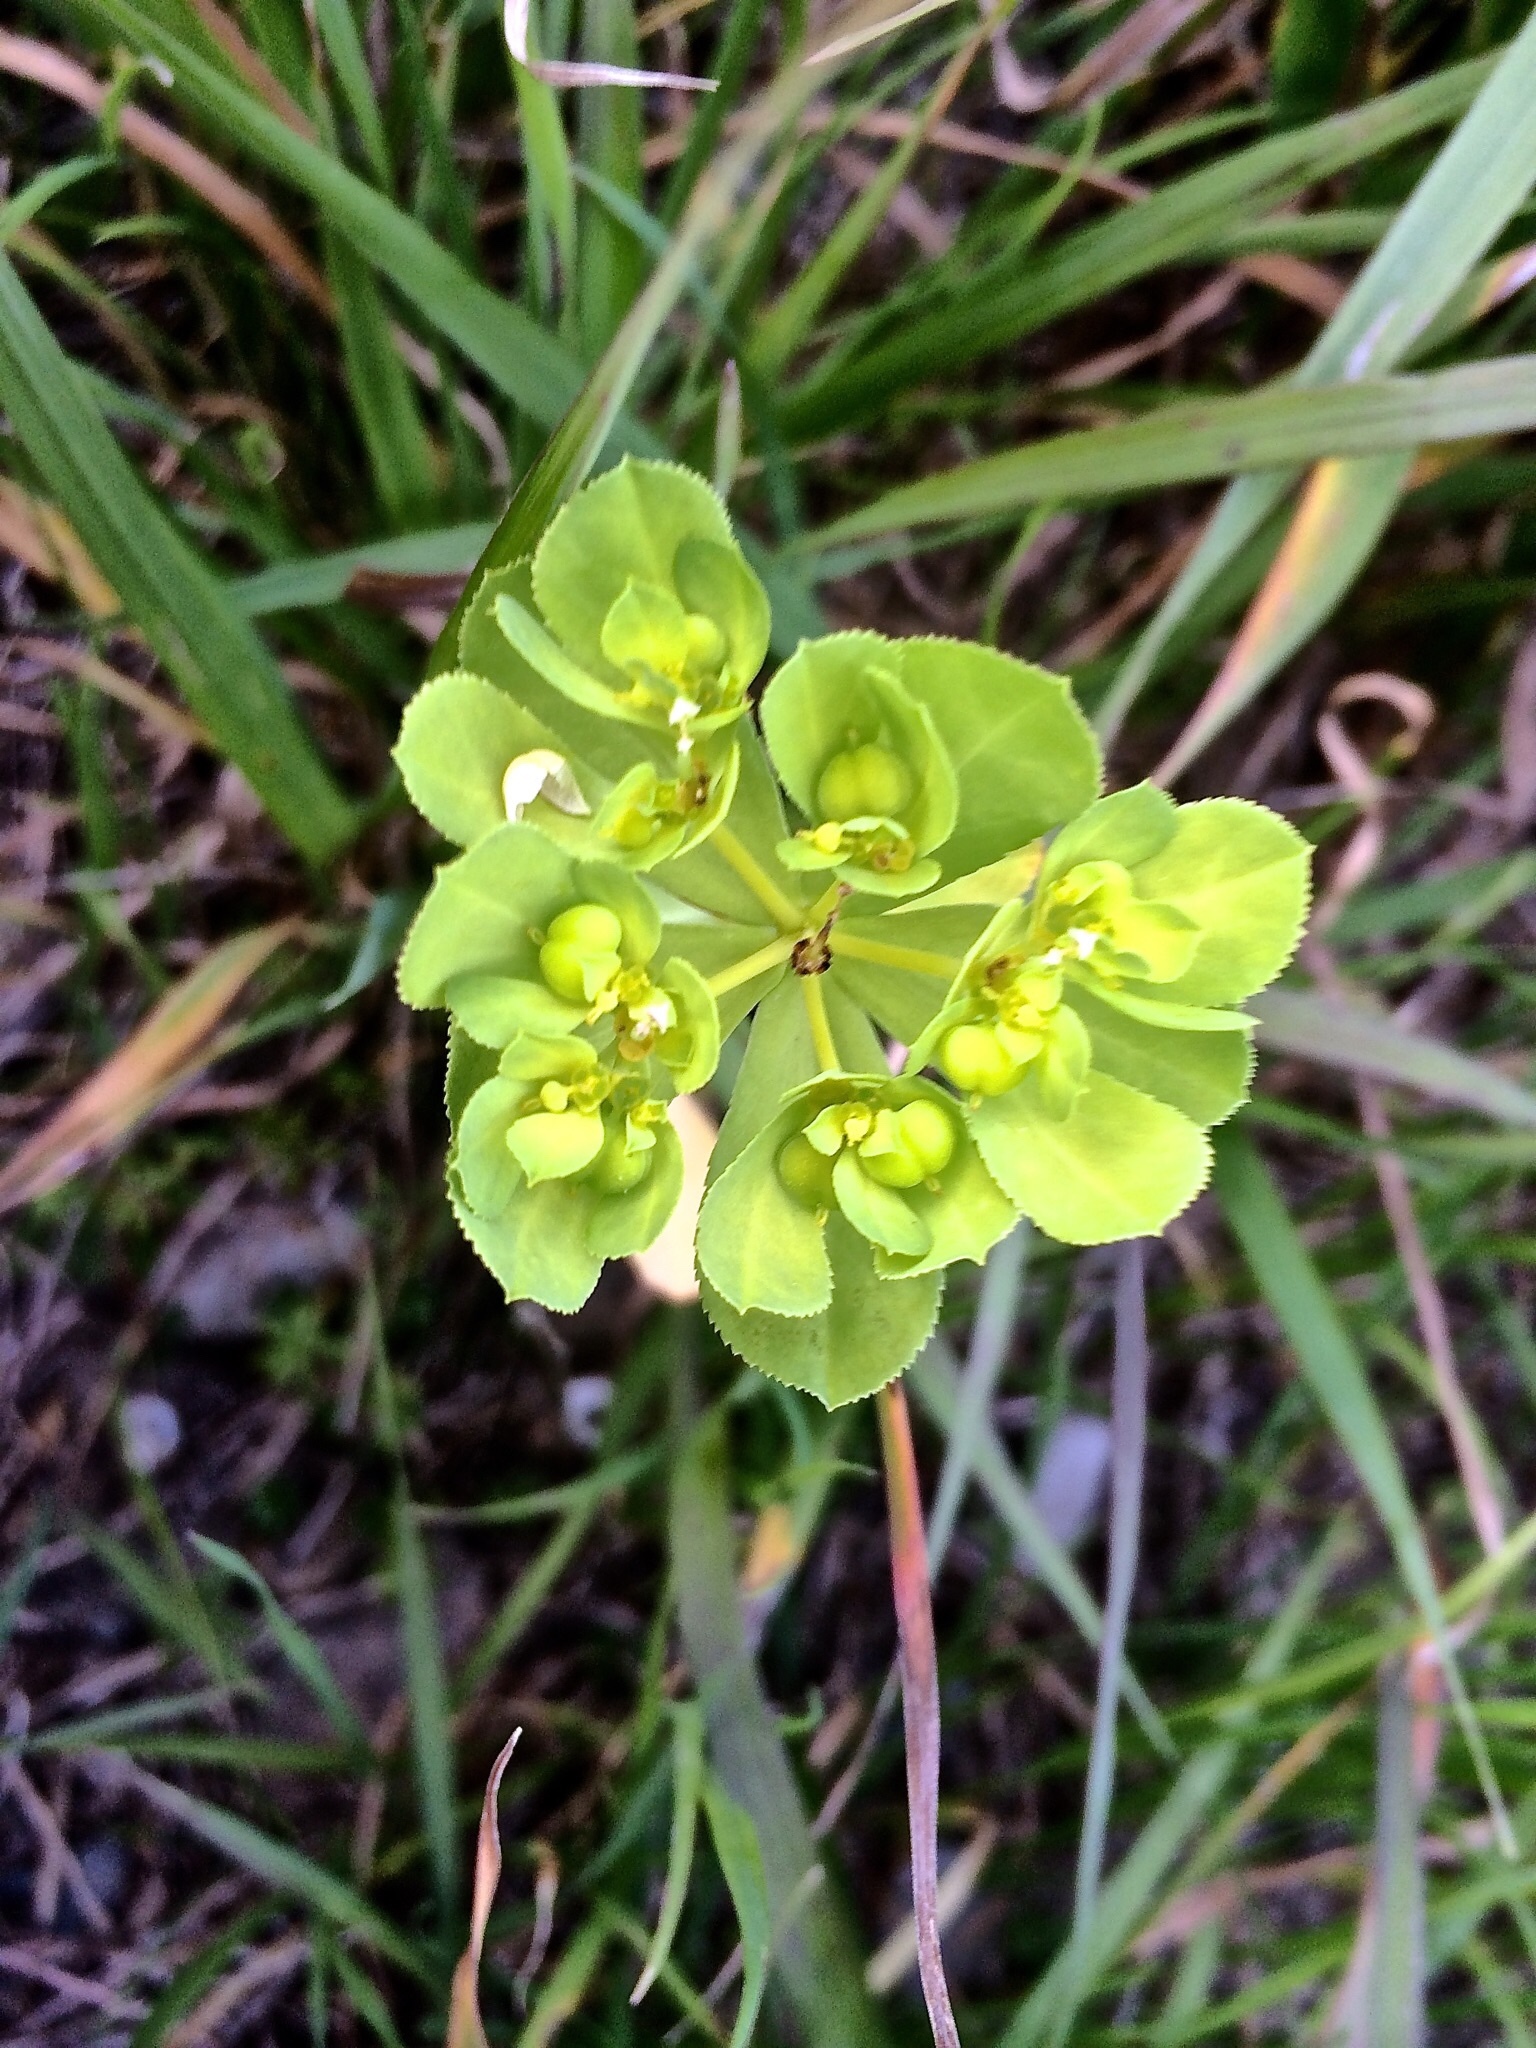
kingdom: Plantae
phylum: Tracheophyta
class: Magnoliopsida
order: Malpighiales
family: Euphorbiaceae
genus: Euphorbia
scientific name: Euphorbia helioscopia
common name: Sun spurge
